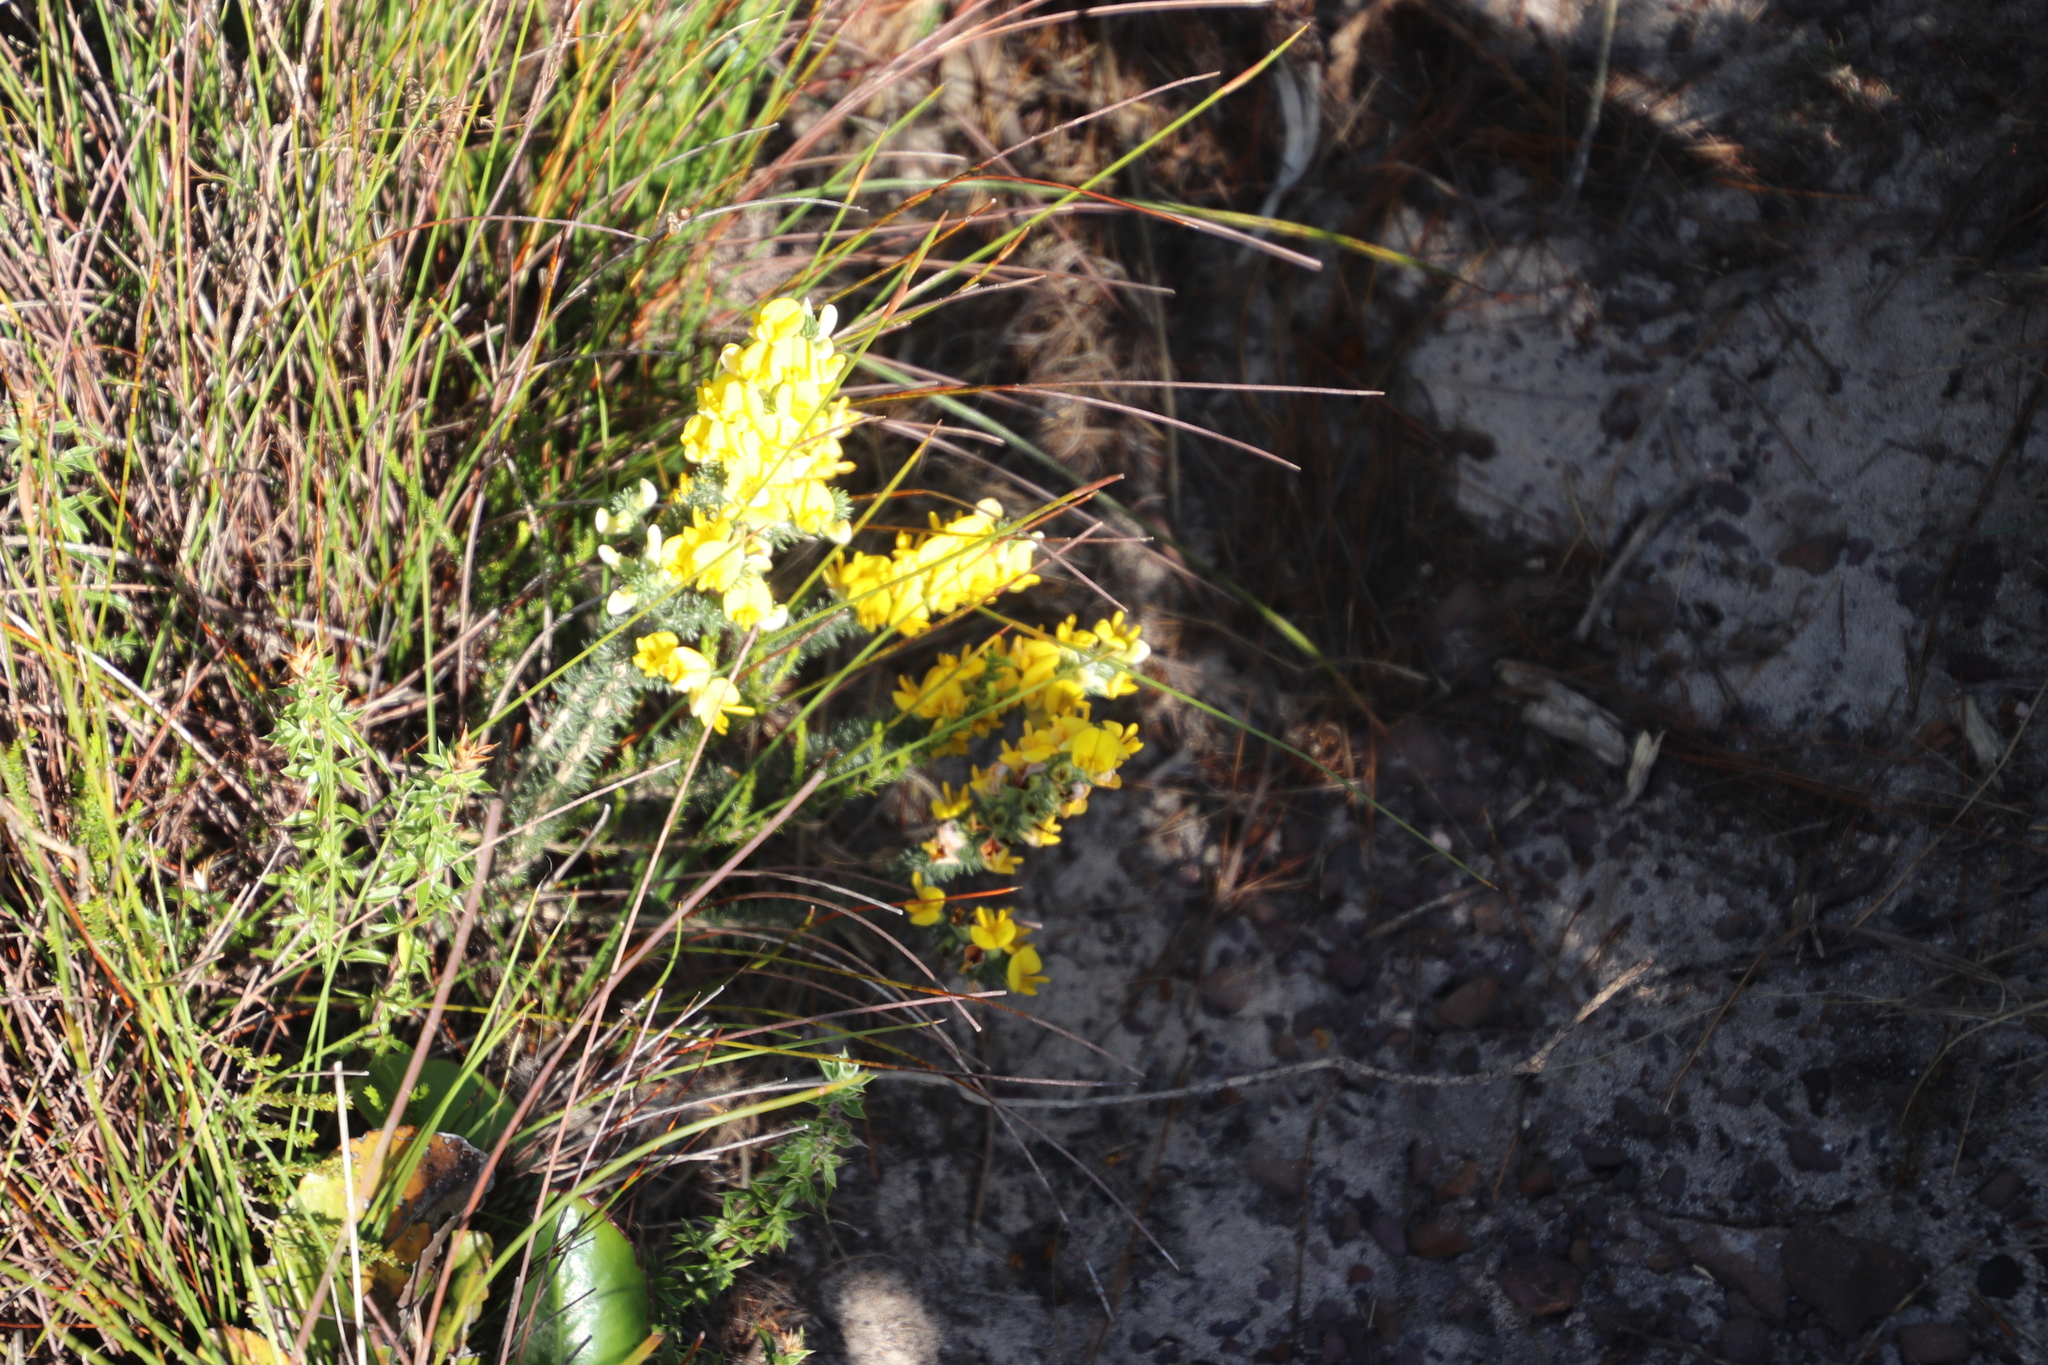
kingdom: Plantae
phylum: Tracheophyta
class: Magnoliopsida
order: Fabales
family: Fabaceae
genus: Aspalathus
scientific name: Aspalathus laricifolia
